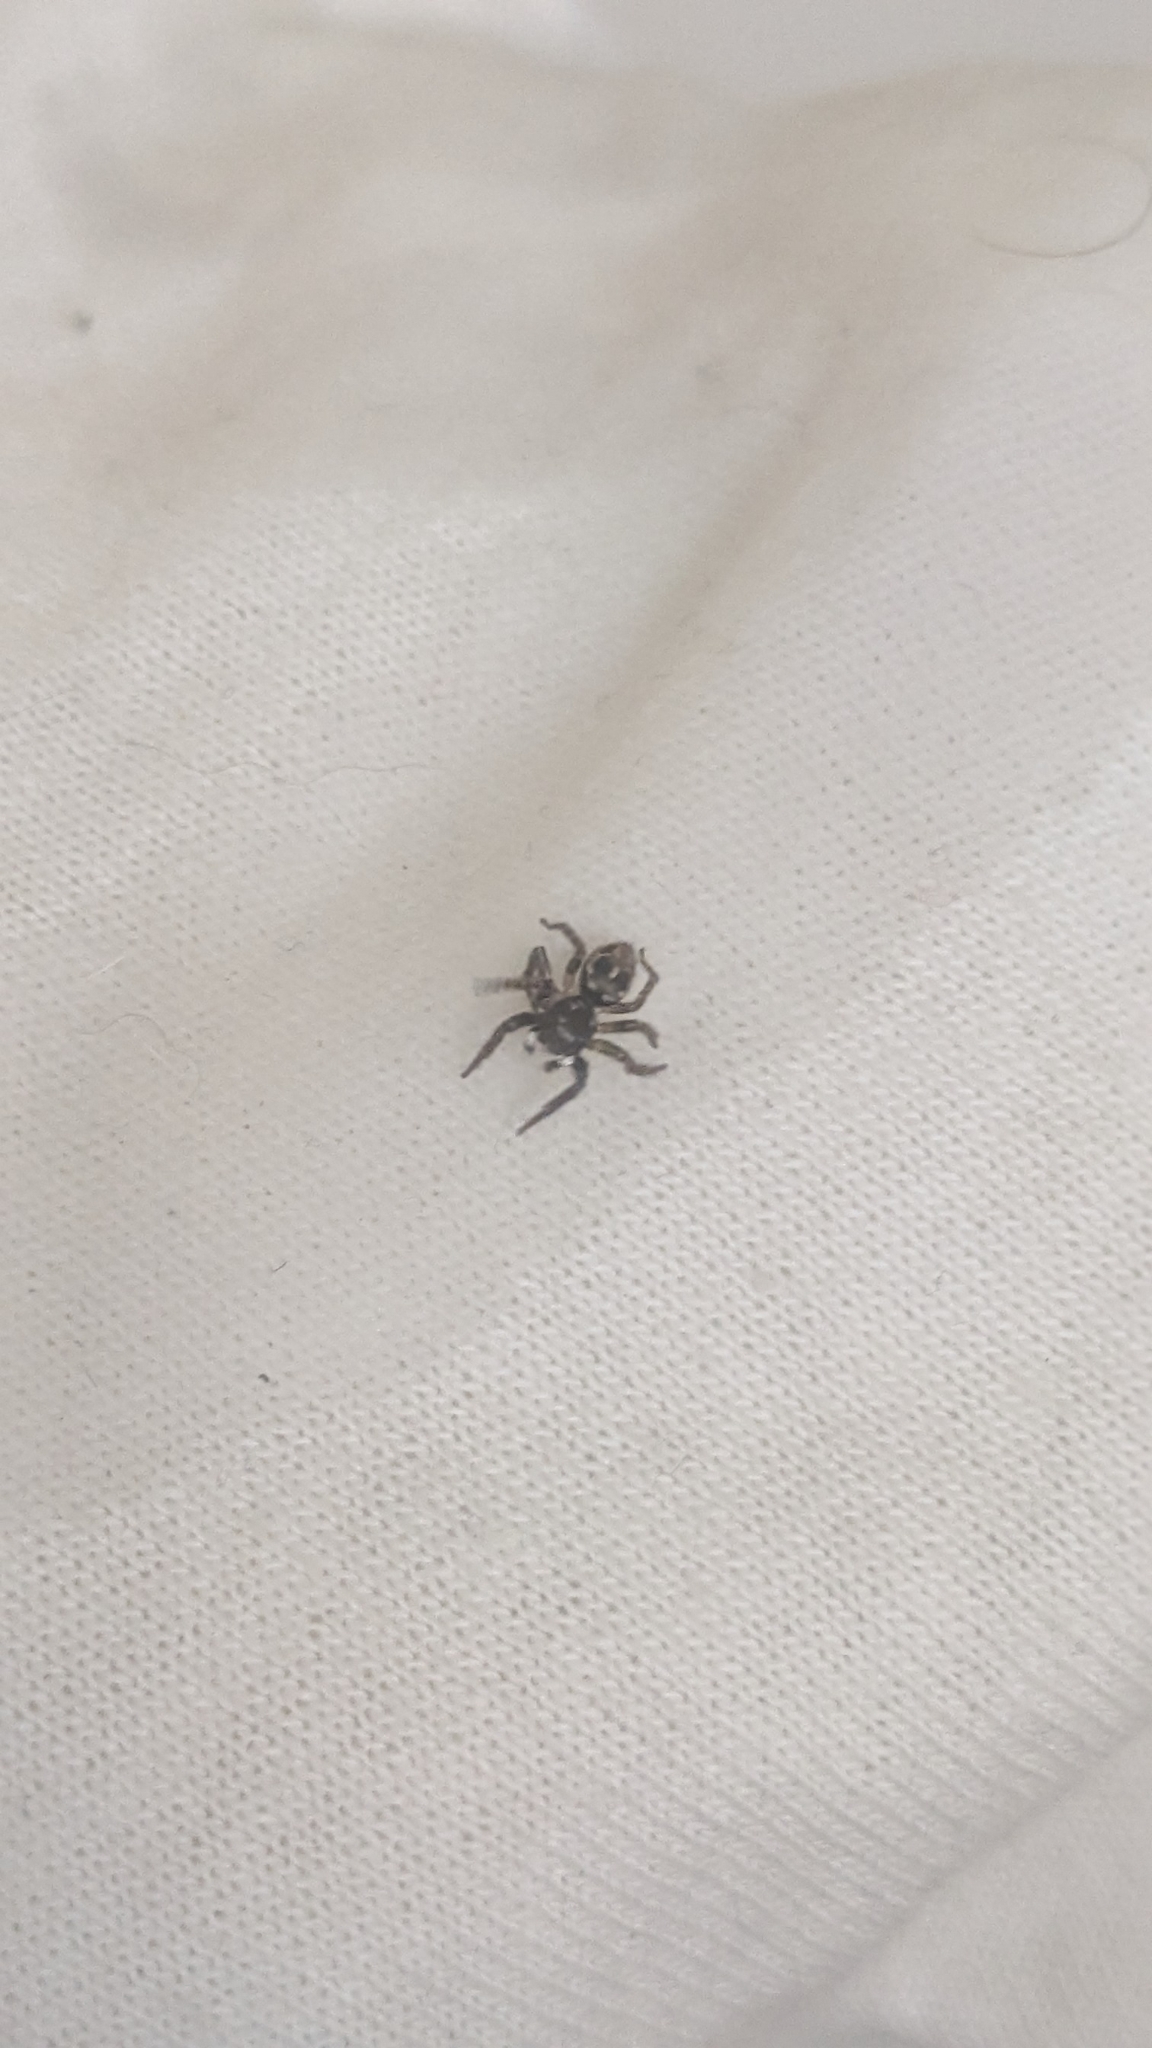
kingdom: Animalia
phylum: Arthropoda
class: Arachnida
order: Araneae
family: Salticidae
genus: Anasaitis
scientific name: Anasaitis canosa
